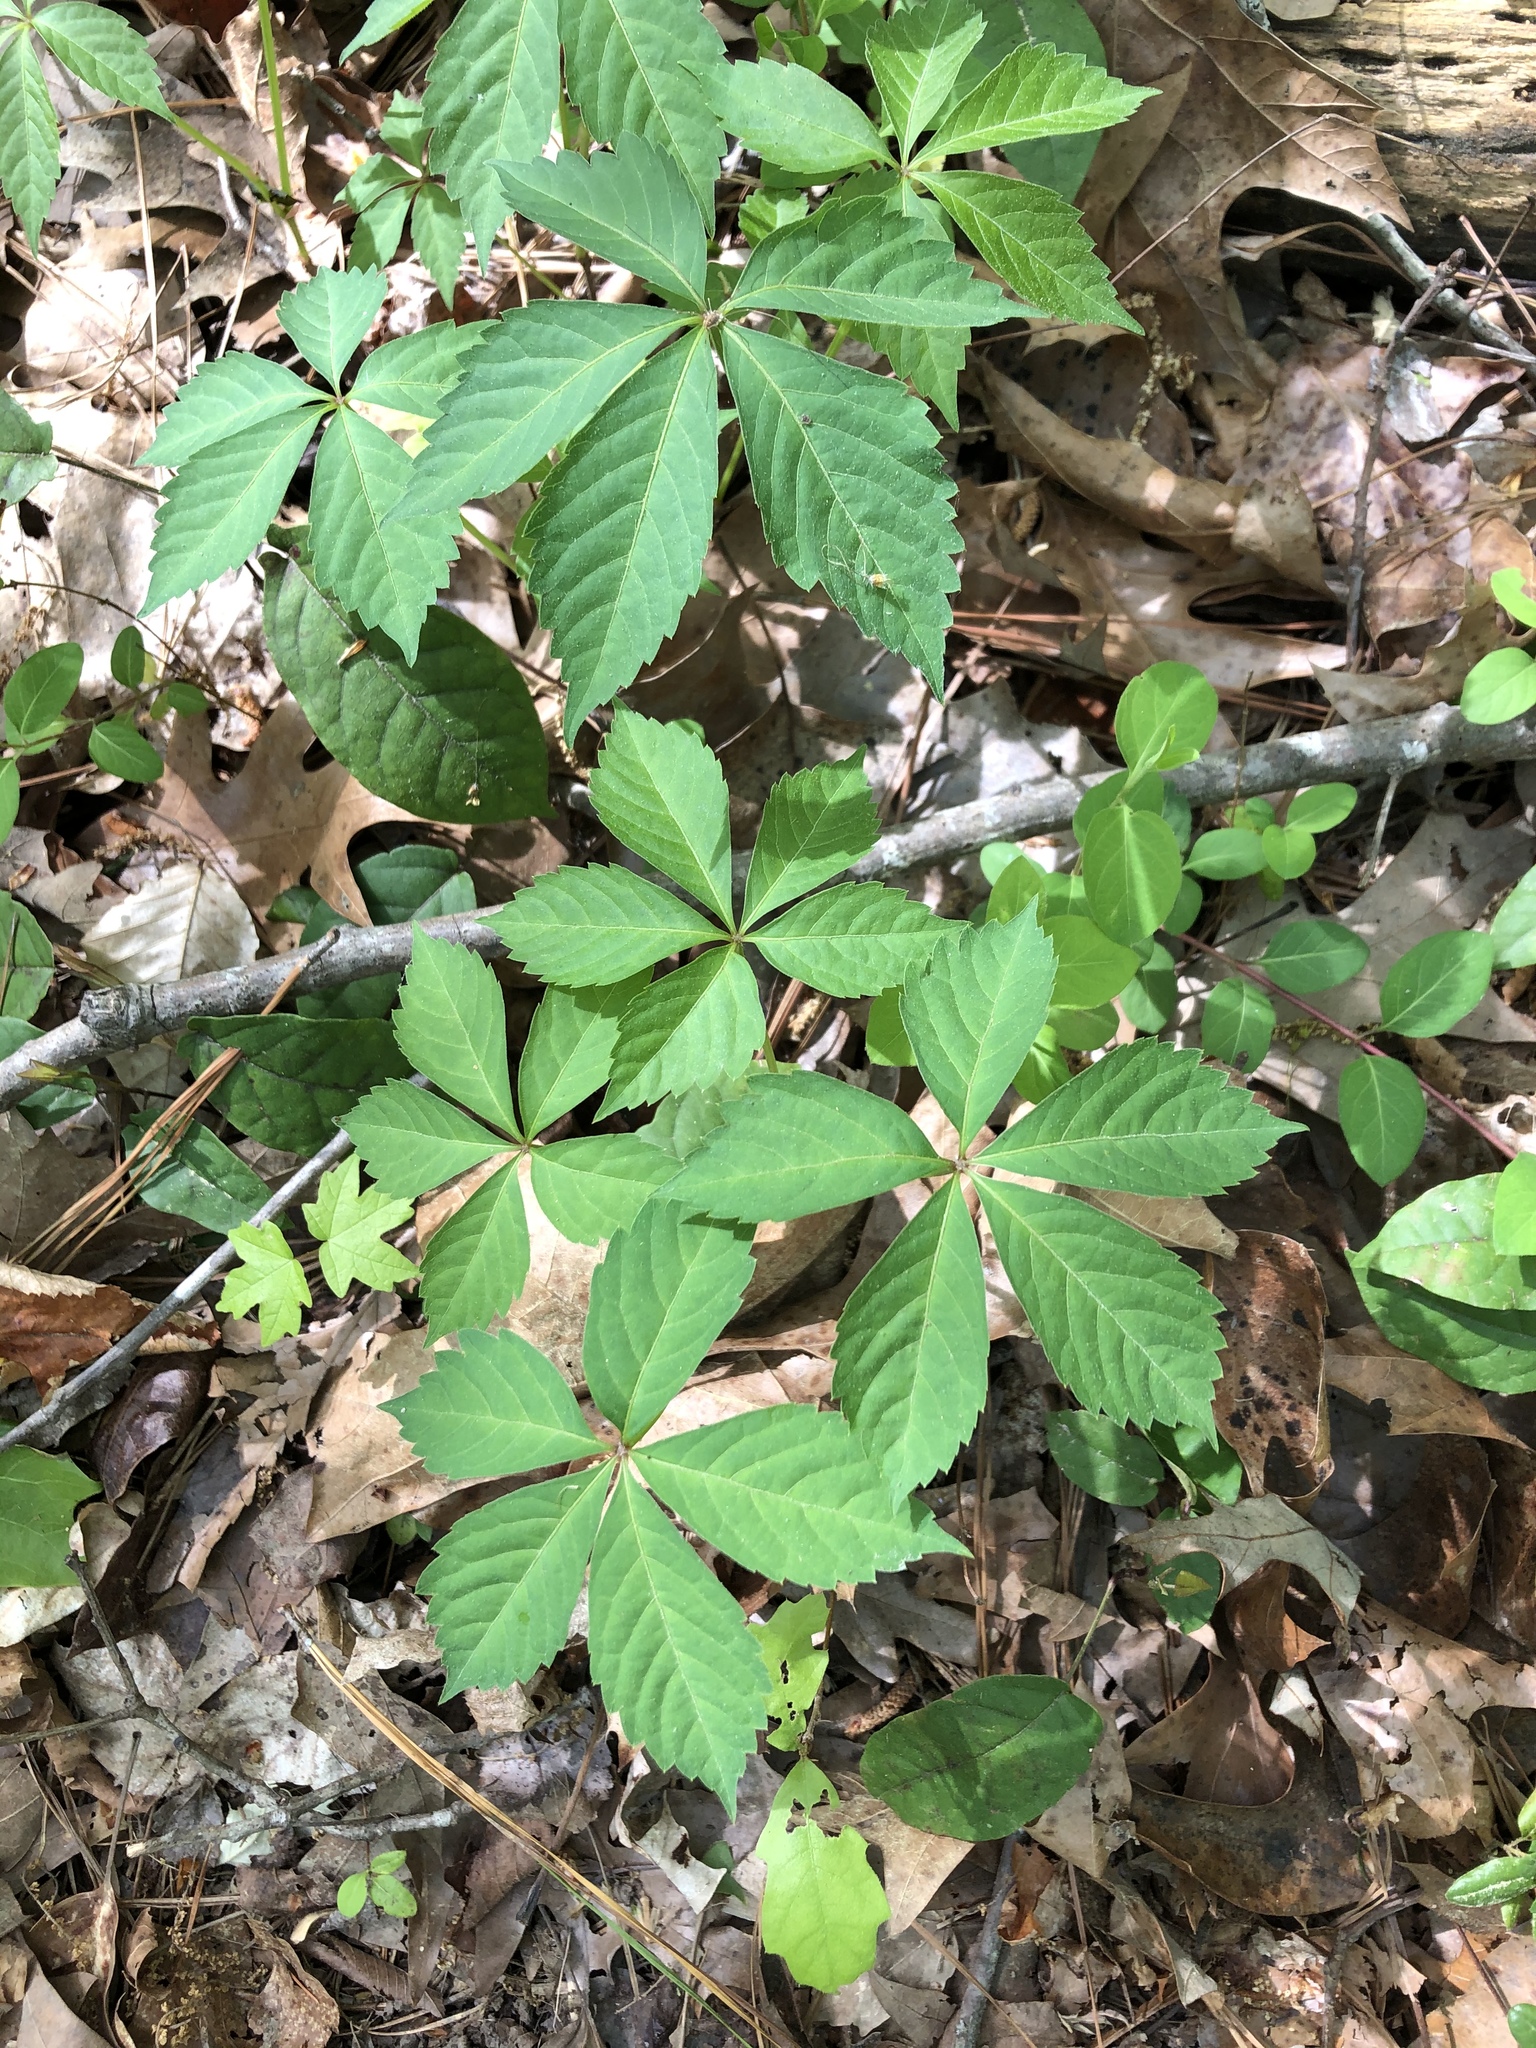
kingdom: Plantae
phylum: Tracheophyta
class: Magnoliopsida
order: Vitales
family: Vitaceae
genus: Parthenocissus
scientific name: Parthenocissus quinquefolia
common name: Virginia-creeper
